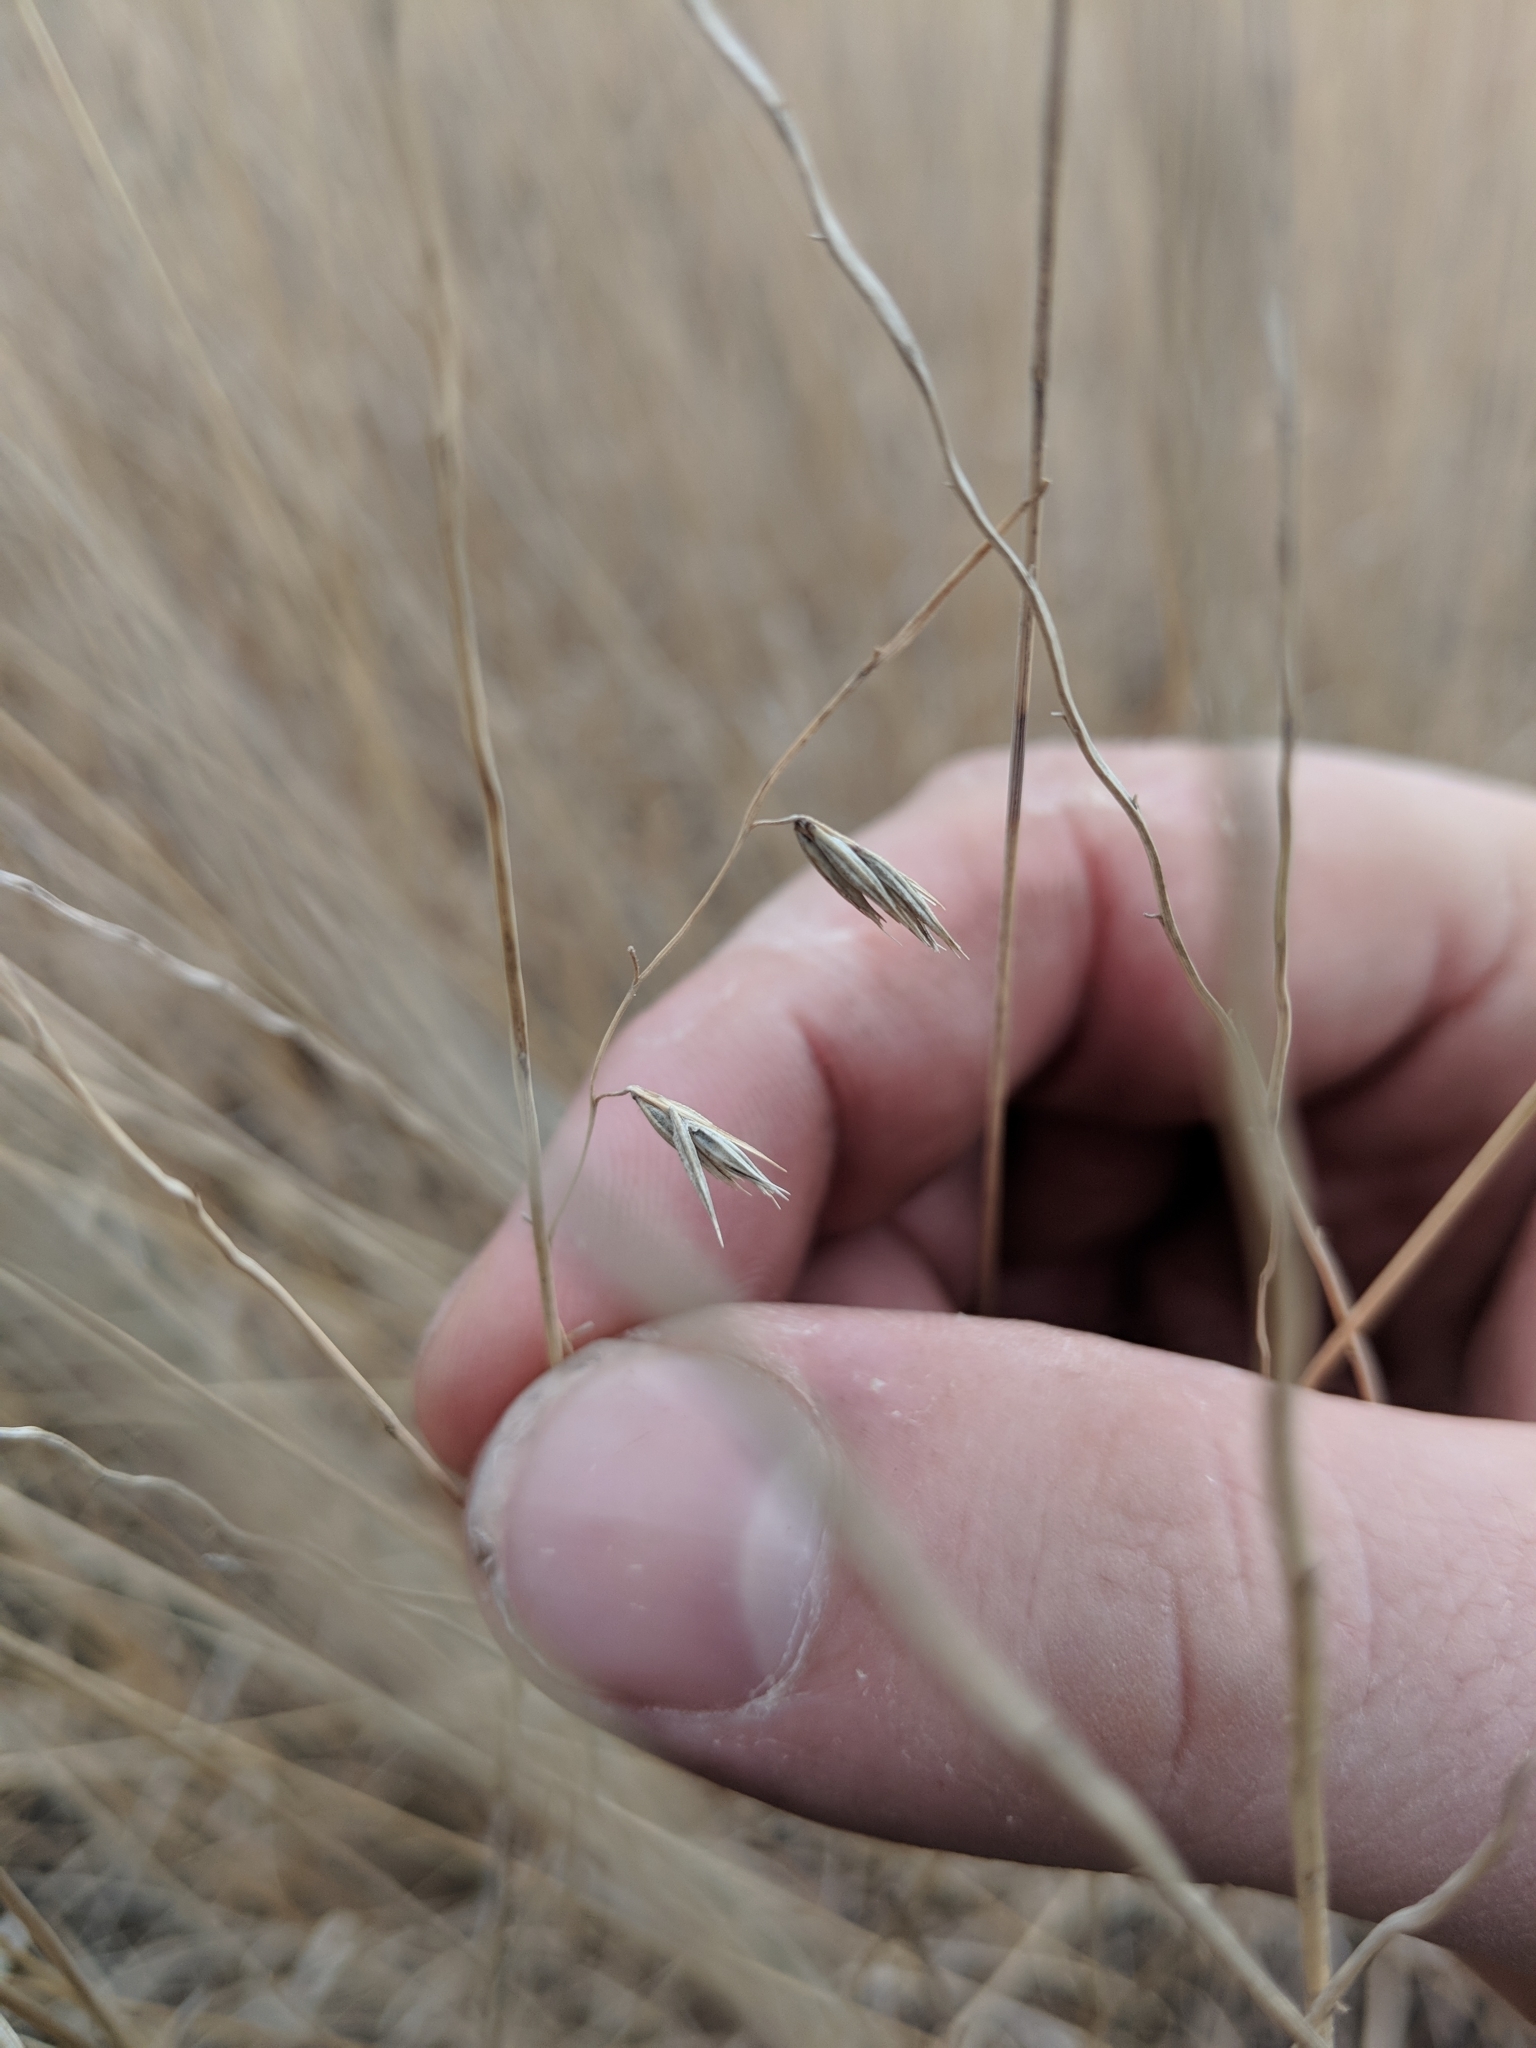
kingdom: Plantae
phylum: Tracheophyta
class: Liliopsida
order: Poales
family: Poaceae
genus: Bouteloua
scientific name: Bouteloua curtipendula
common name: Side-oats grama
